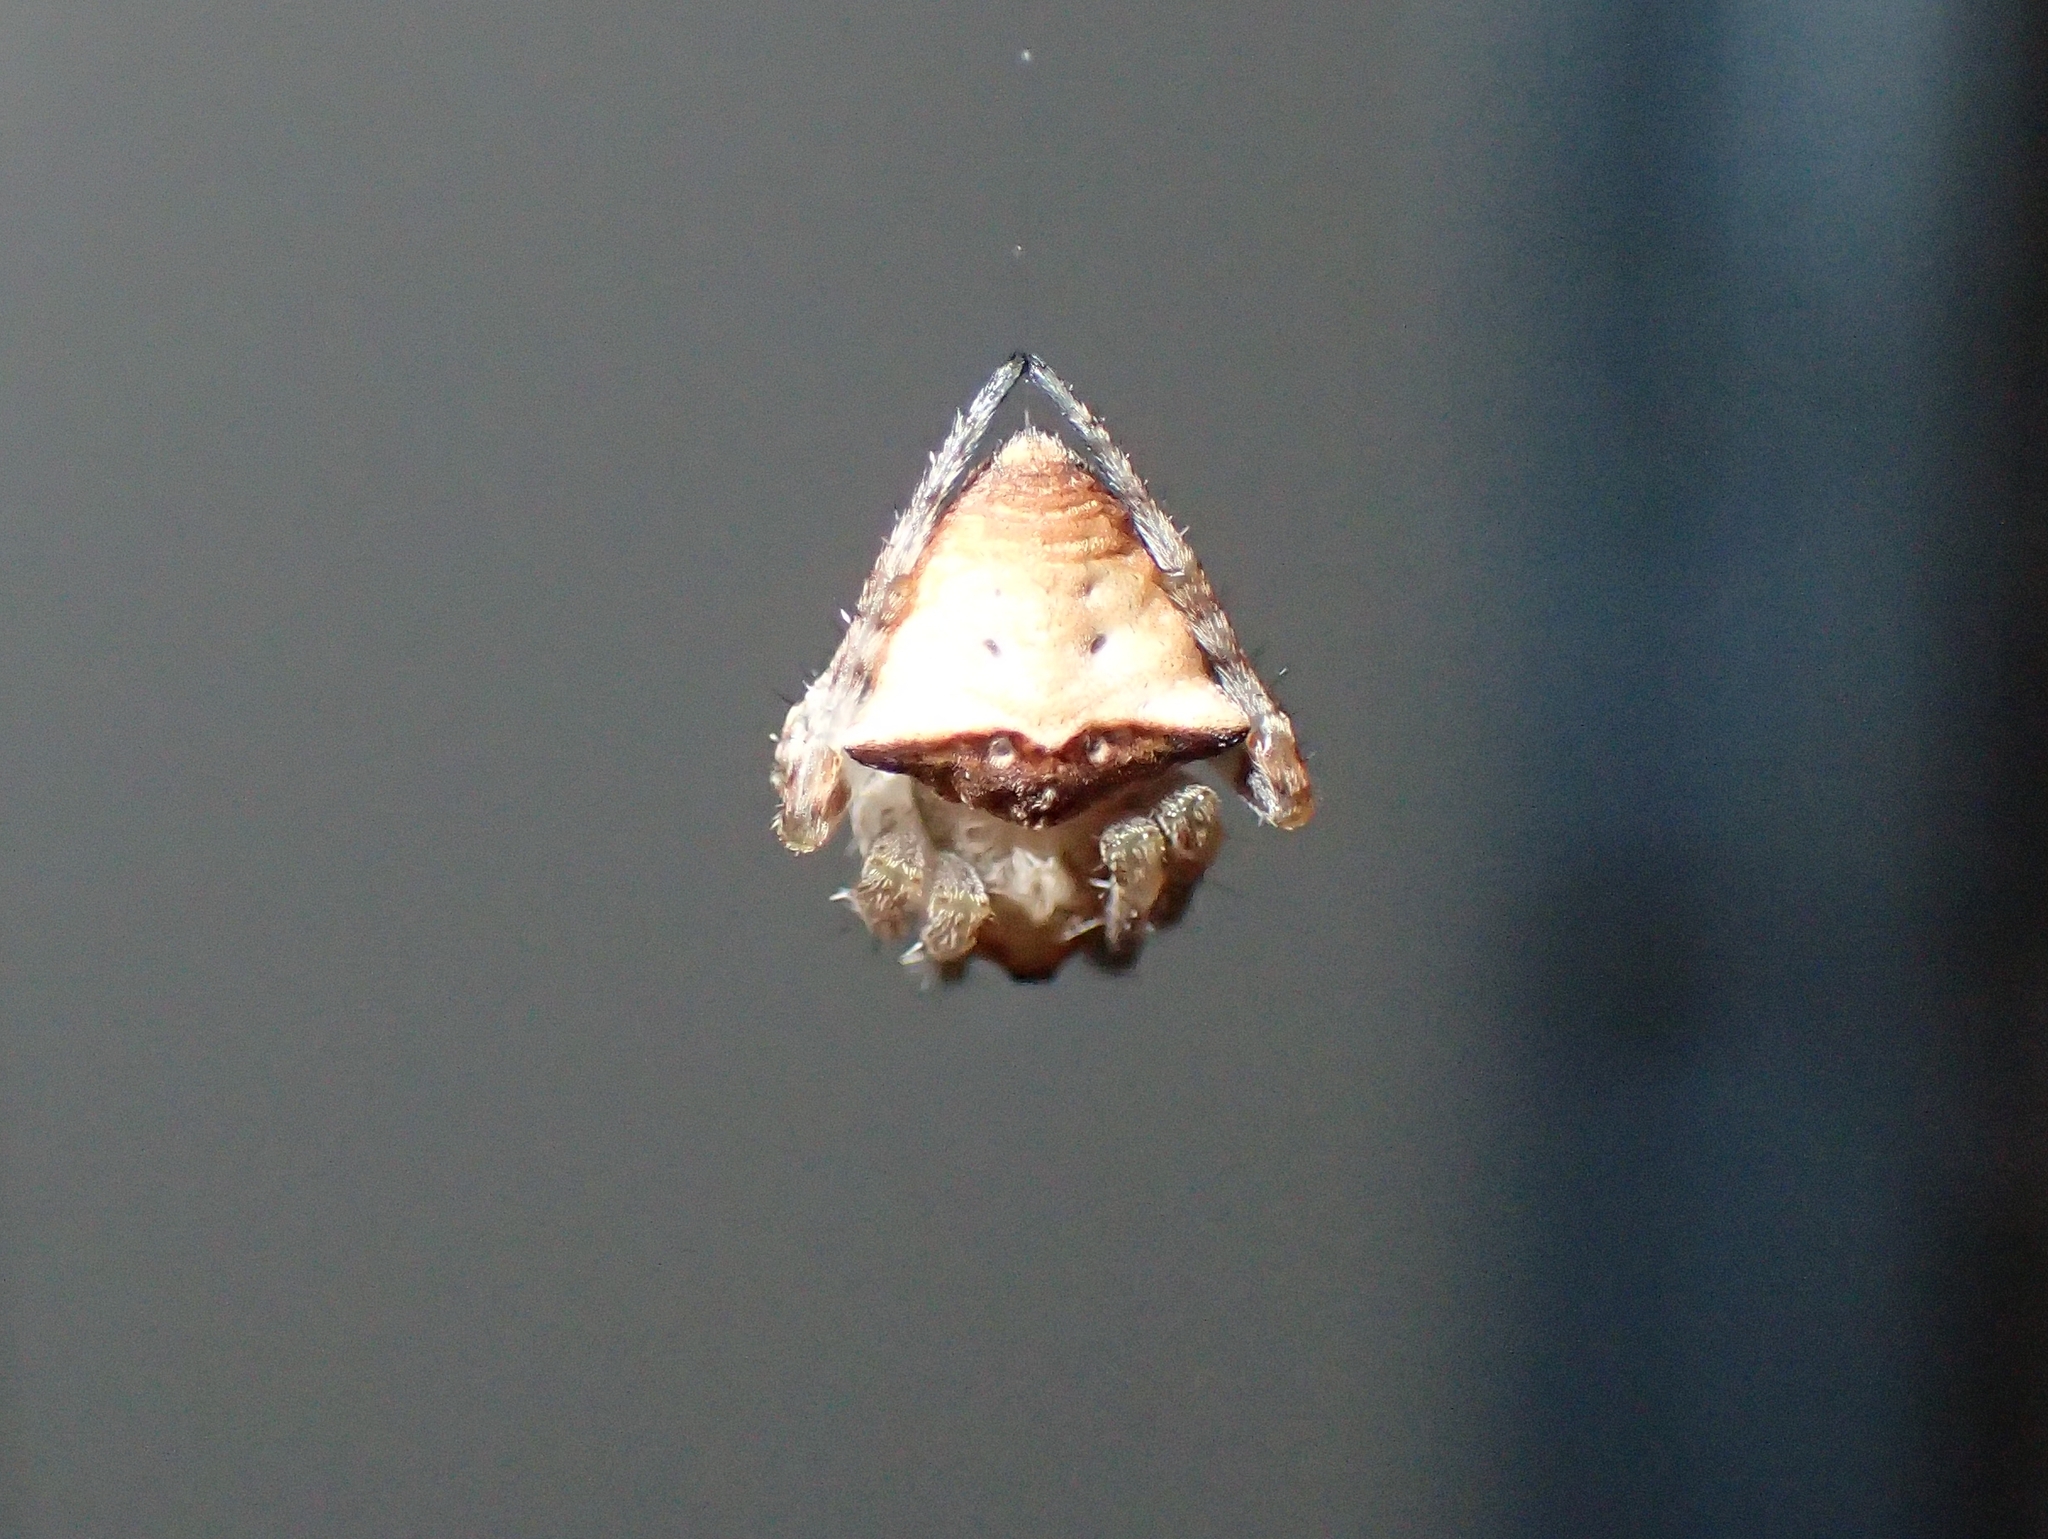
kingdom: Animalia
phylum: Arthropoda
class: Arachnida
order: Araneae
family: Araneidae
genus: Gibbaranea
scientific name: Gibbaranea bituberculata
